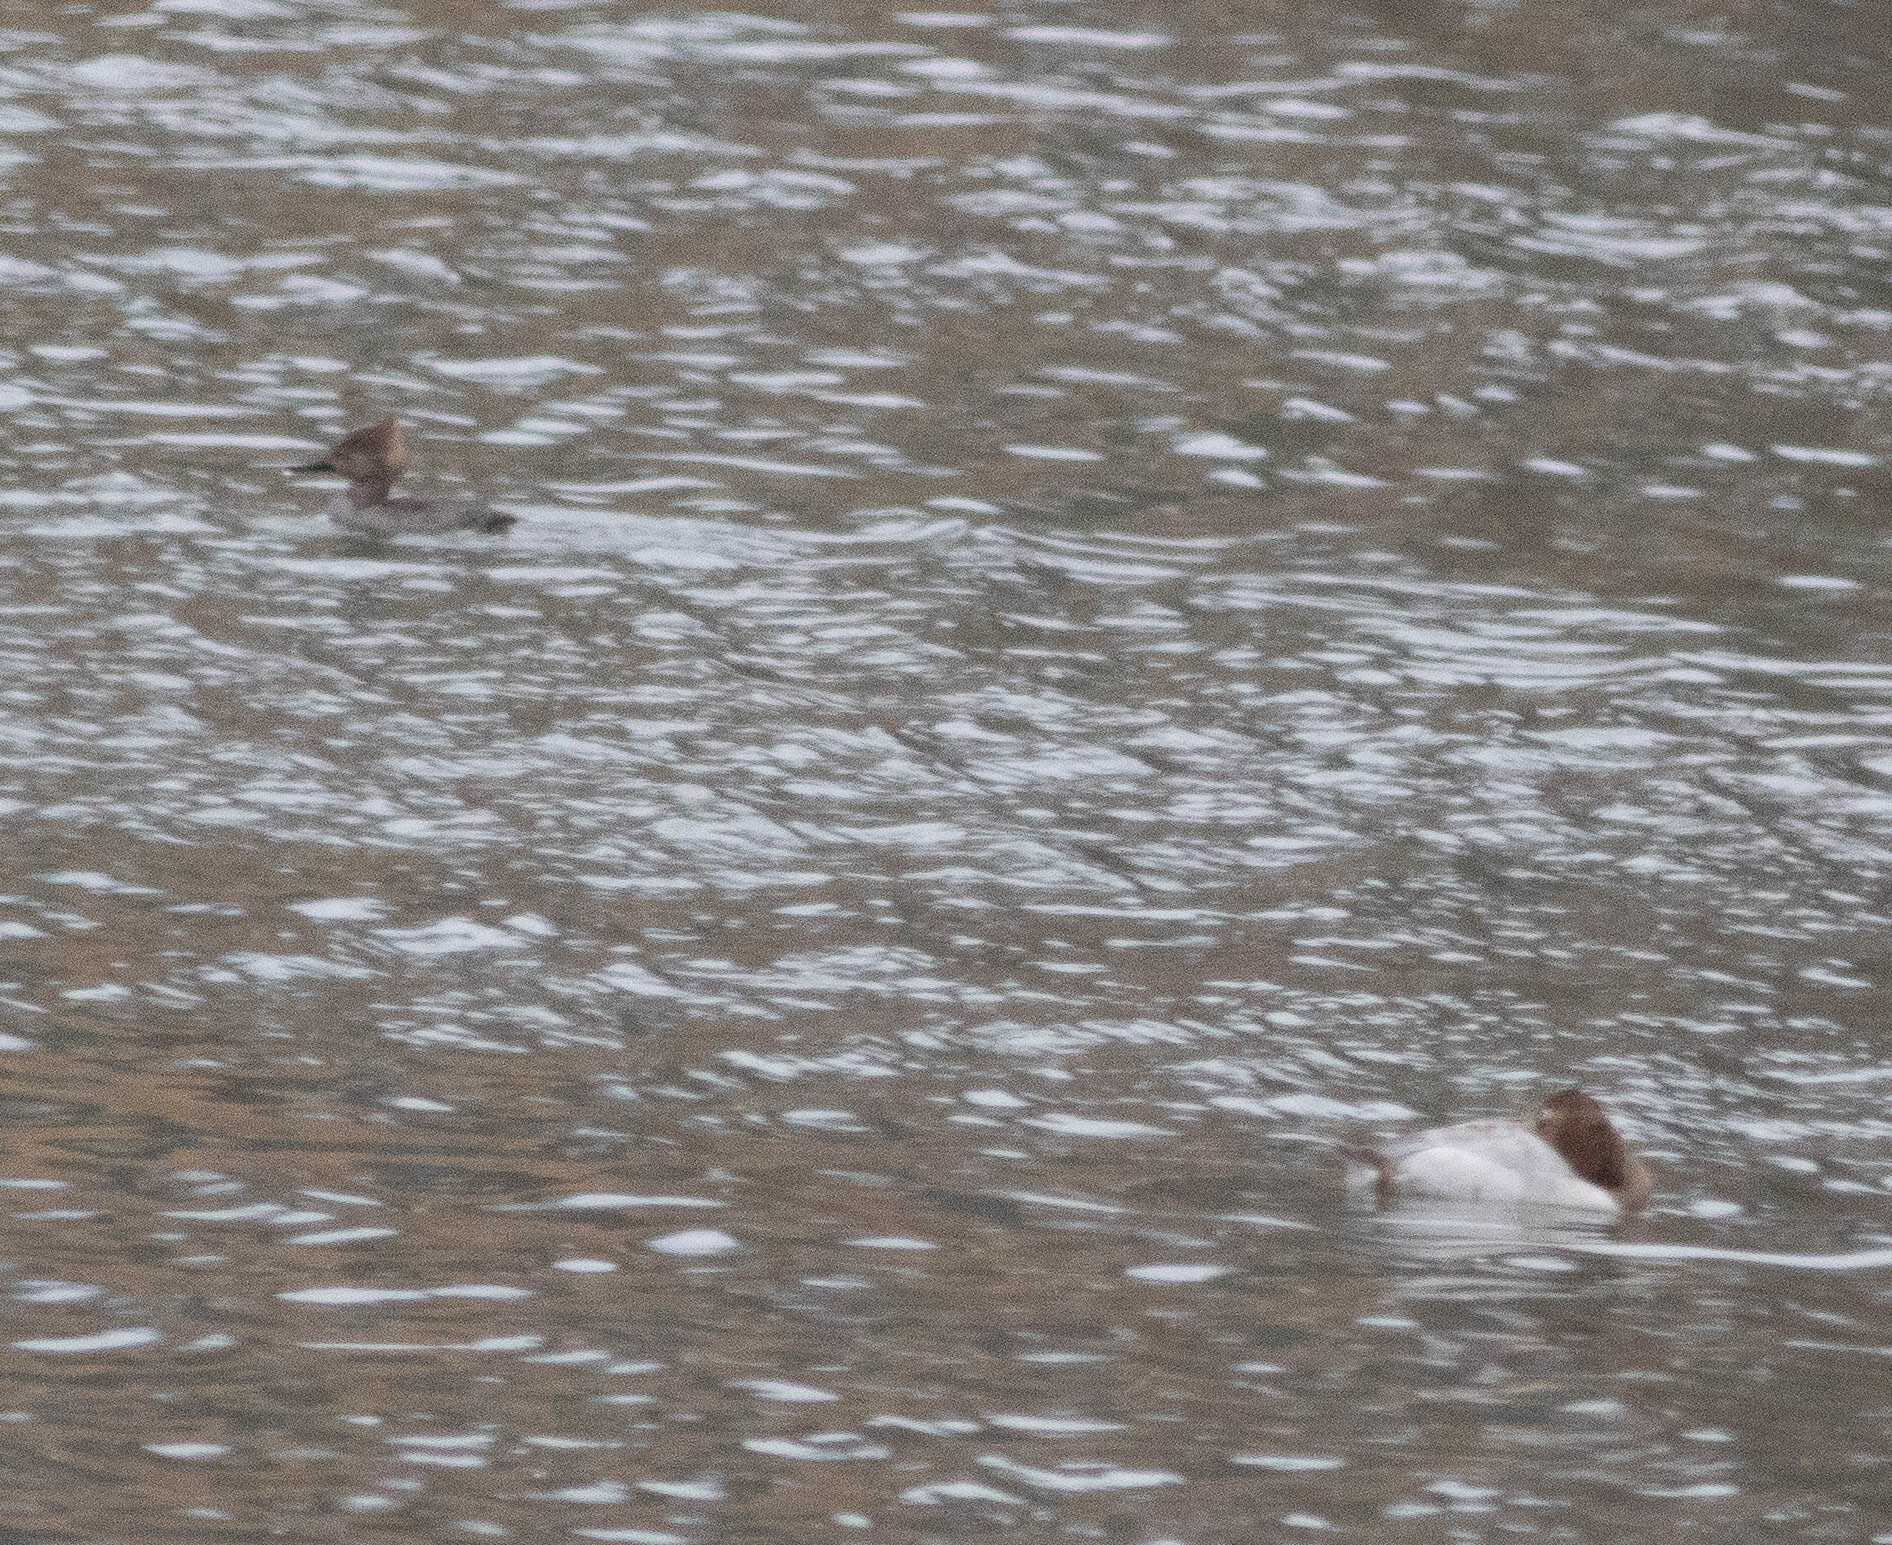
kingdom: Animalia
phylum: Chordata
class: Aves
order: Anseriformes
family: Anatidae
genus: Aythya
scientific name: Aythya valisineria
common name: Canvasback
